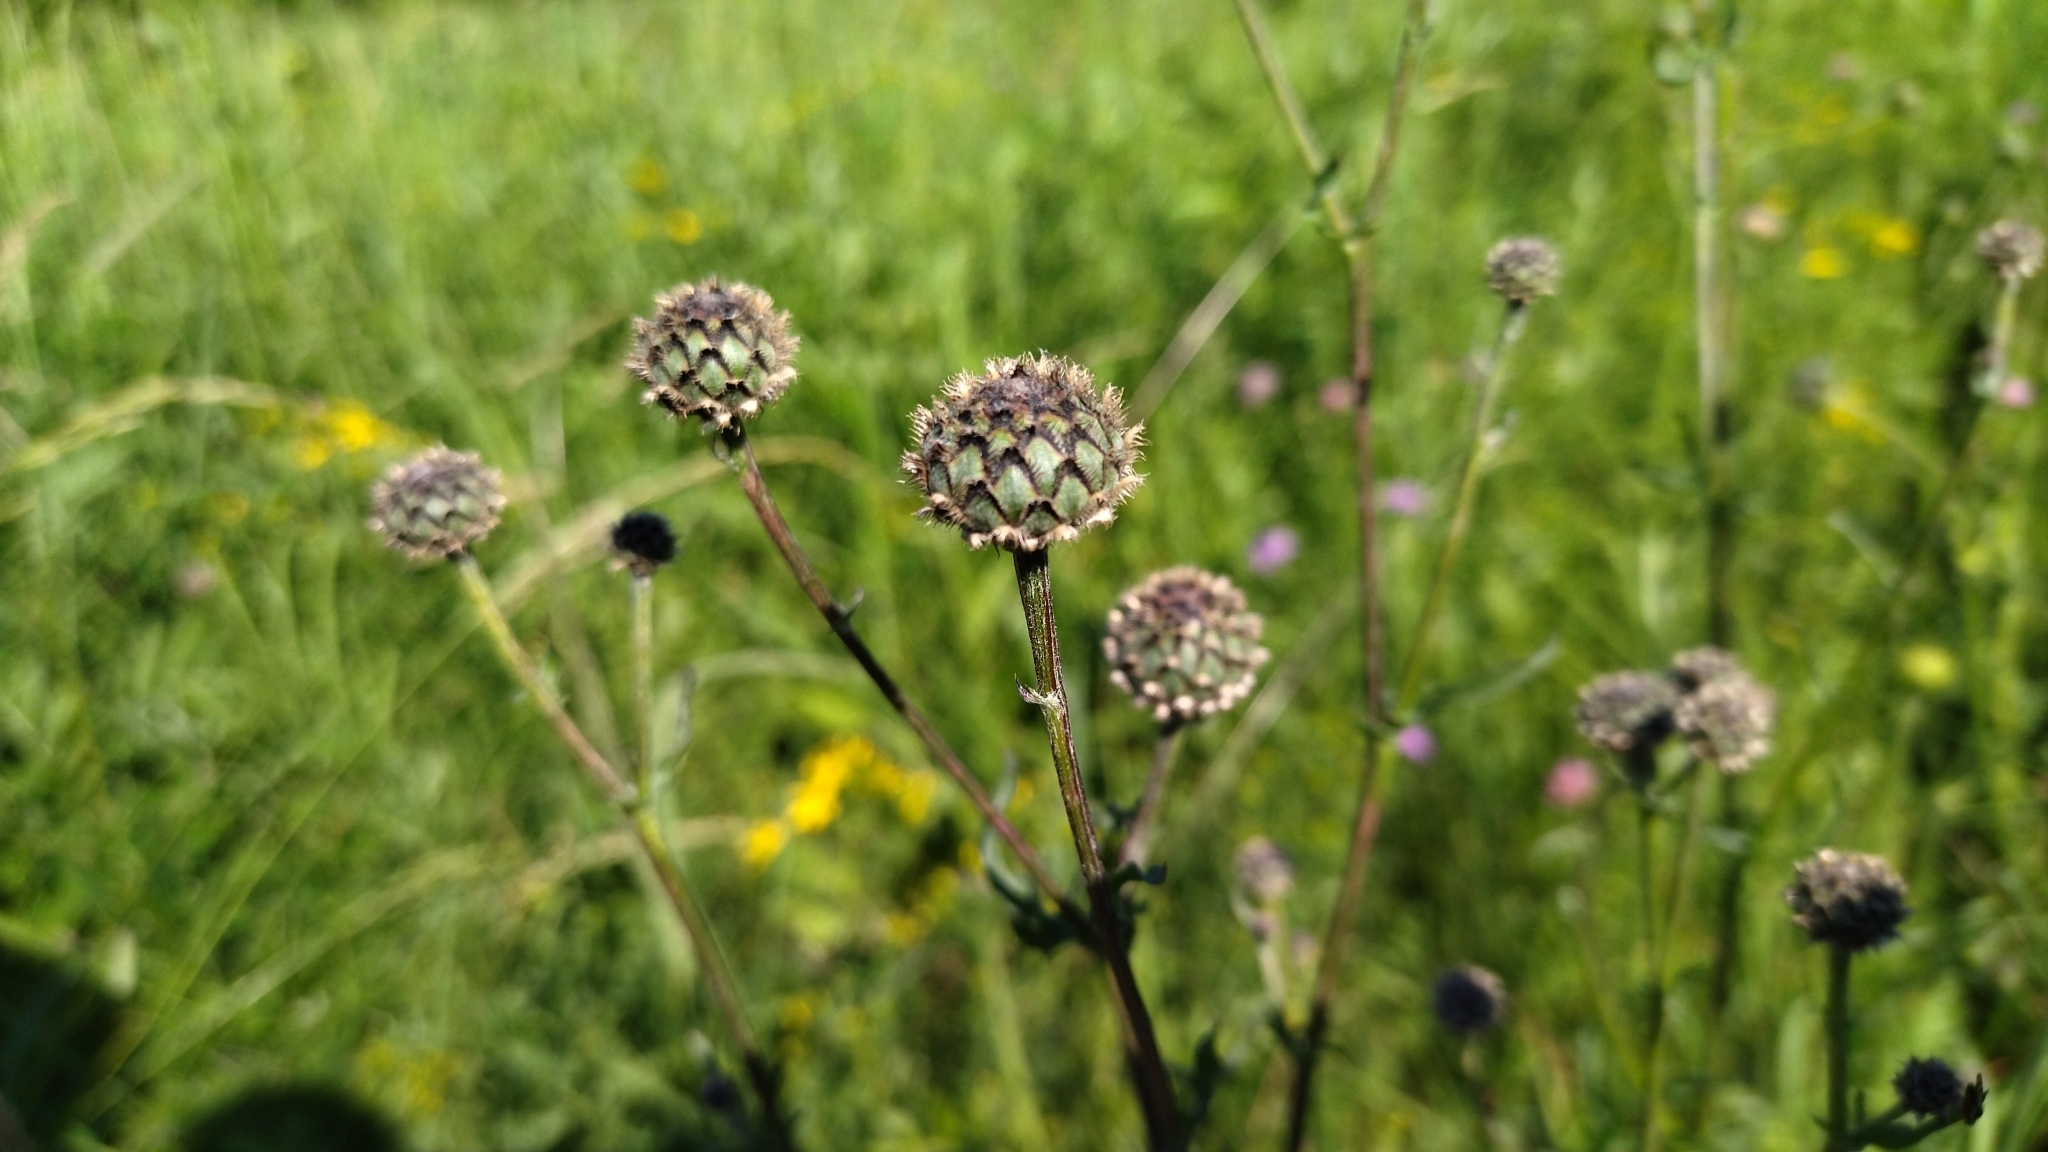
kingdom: Plantae
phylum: Tracheophyta
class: Magnoliopsida
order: Asterales
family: Asteraceae
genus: Centaurea
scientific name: Centaurea scabiosa
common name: Greater knapweed
